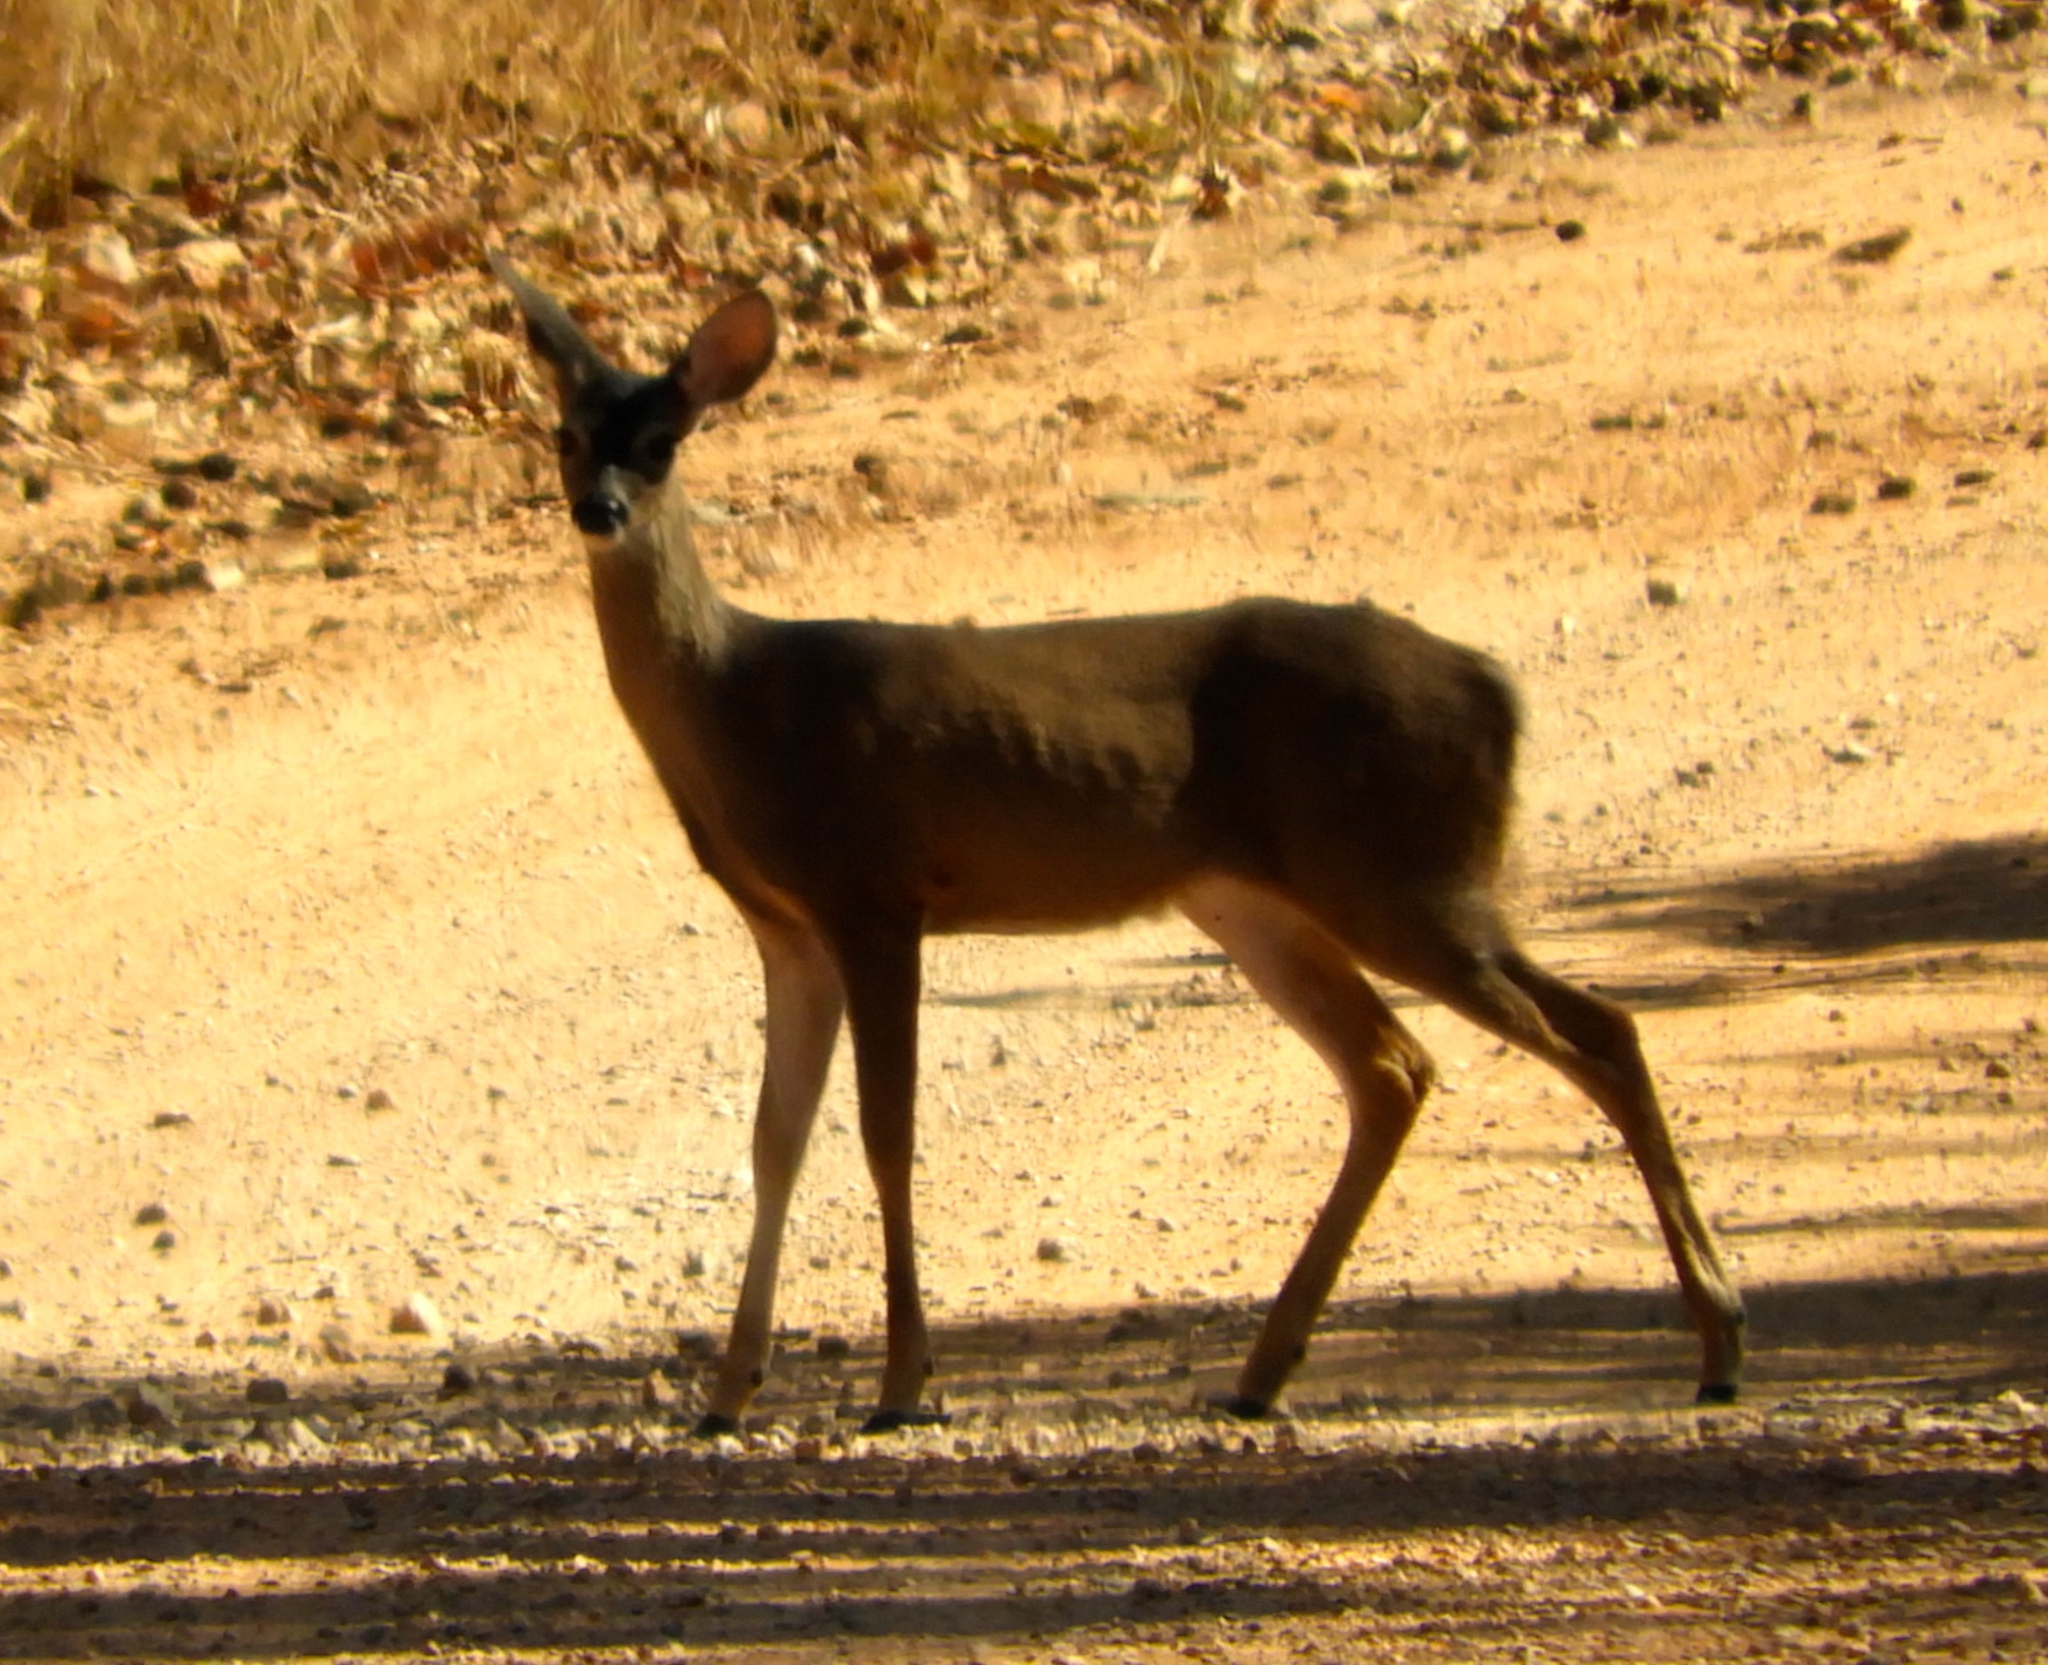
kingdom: Animalia
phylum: Chordata
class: Mammalia
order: Artiodactyla
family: Cervidae
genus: Odocoileus
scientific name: Odocoileus virginianus
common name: White-tailed deer
